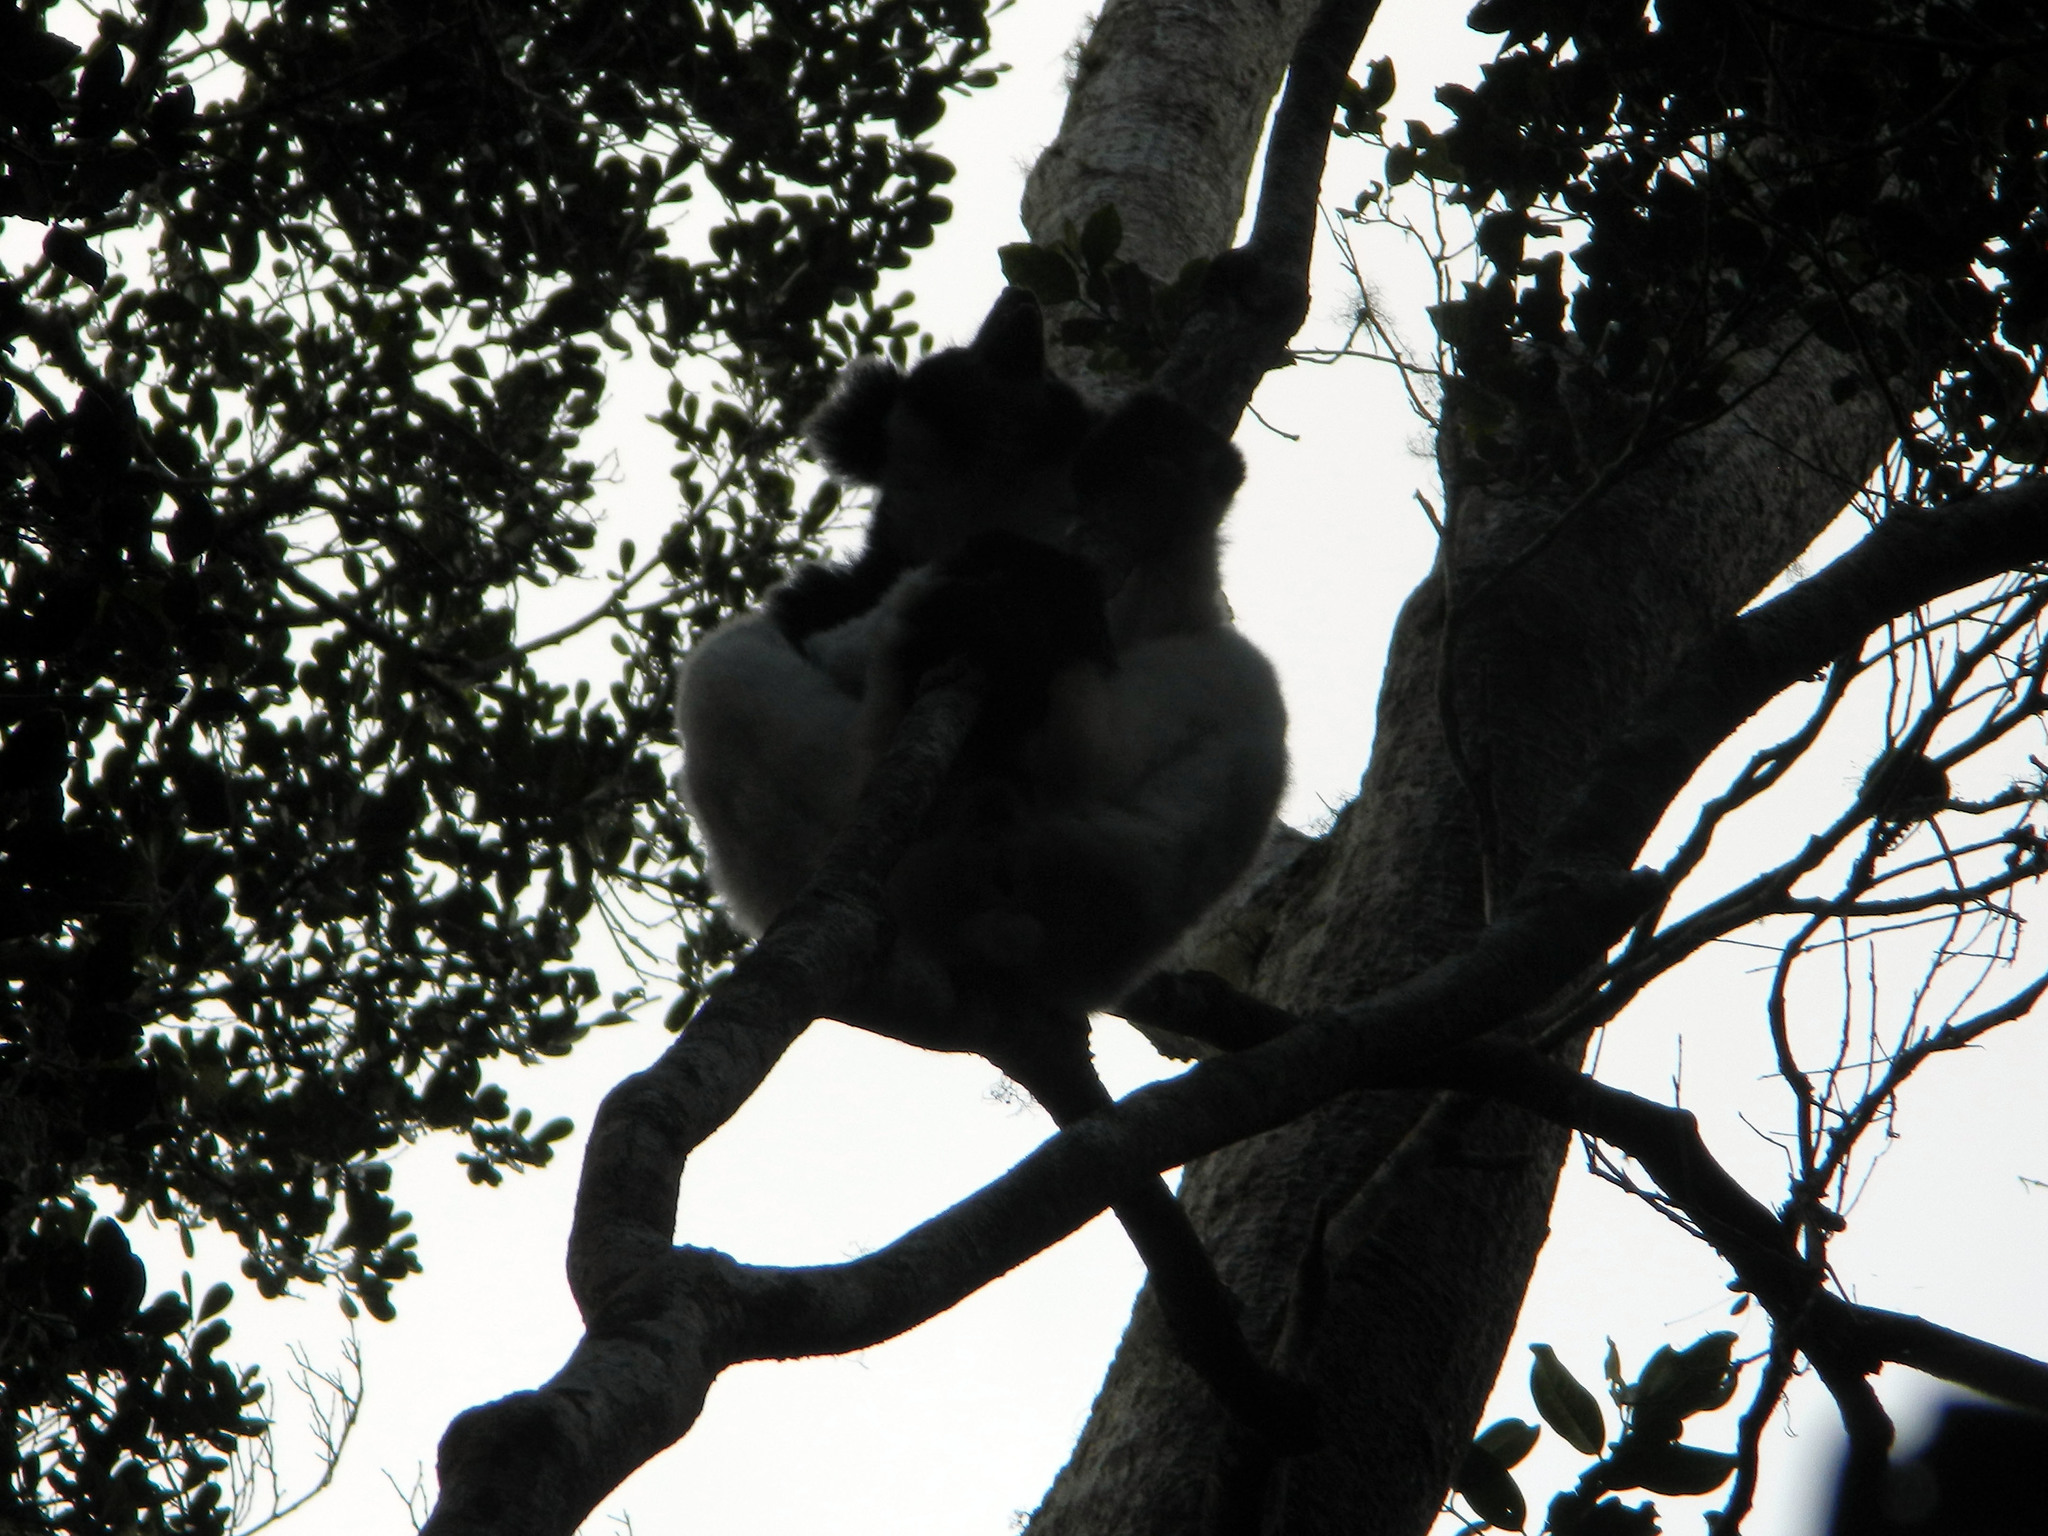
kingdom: Animalia
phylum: Chordata
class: Mammalia
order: Primates
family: Indriidae
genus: Indri
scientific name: Indri indri
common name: Indri
